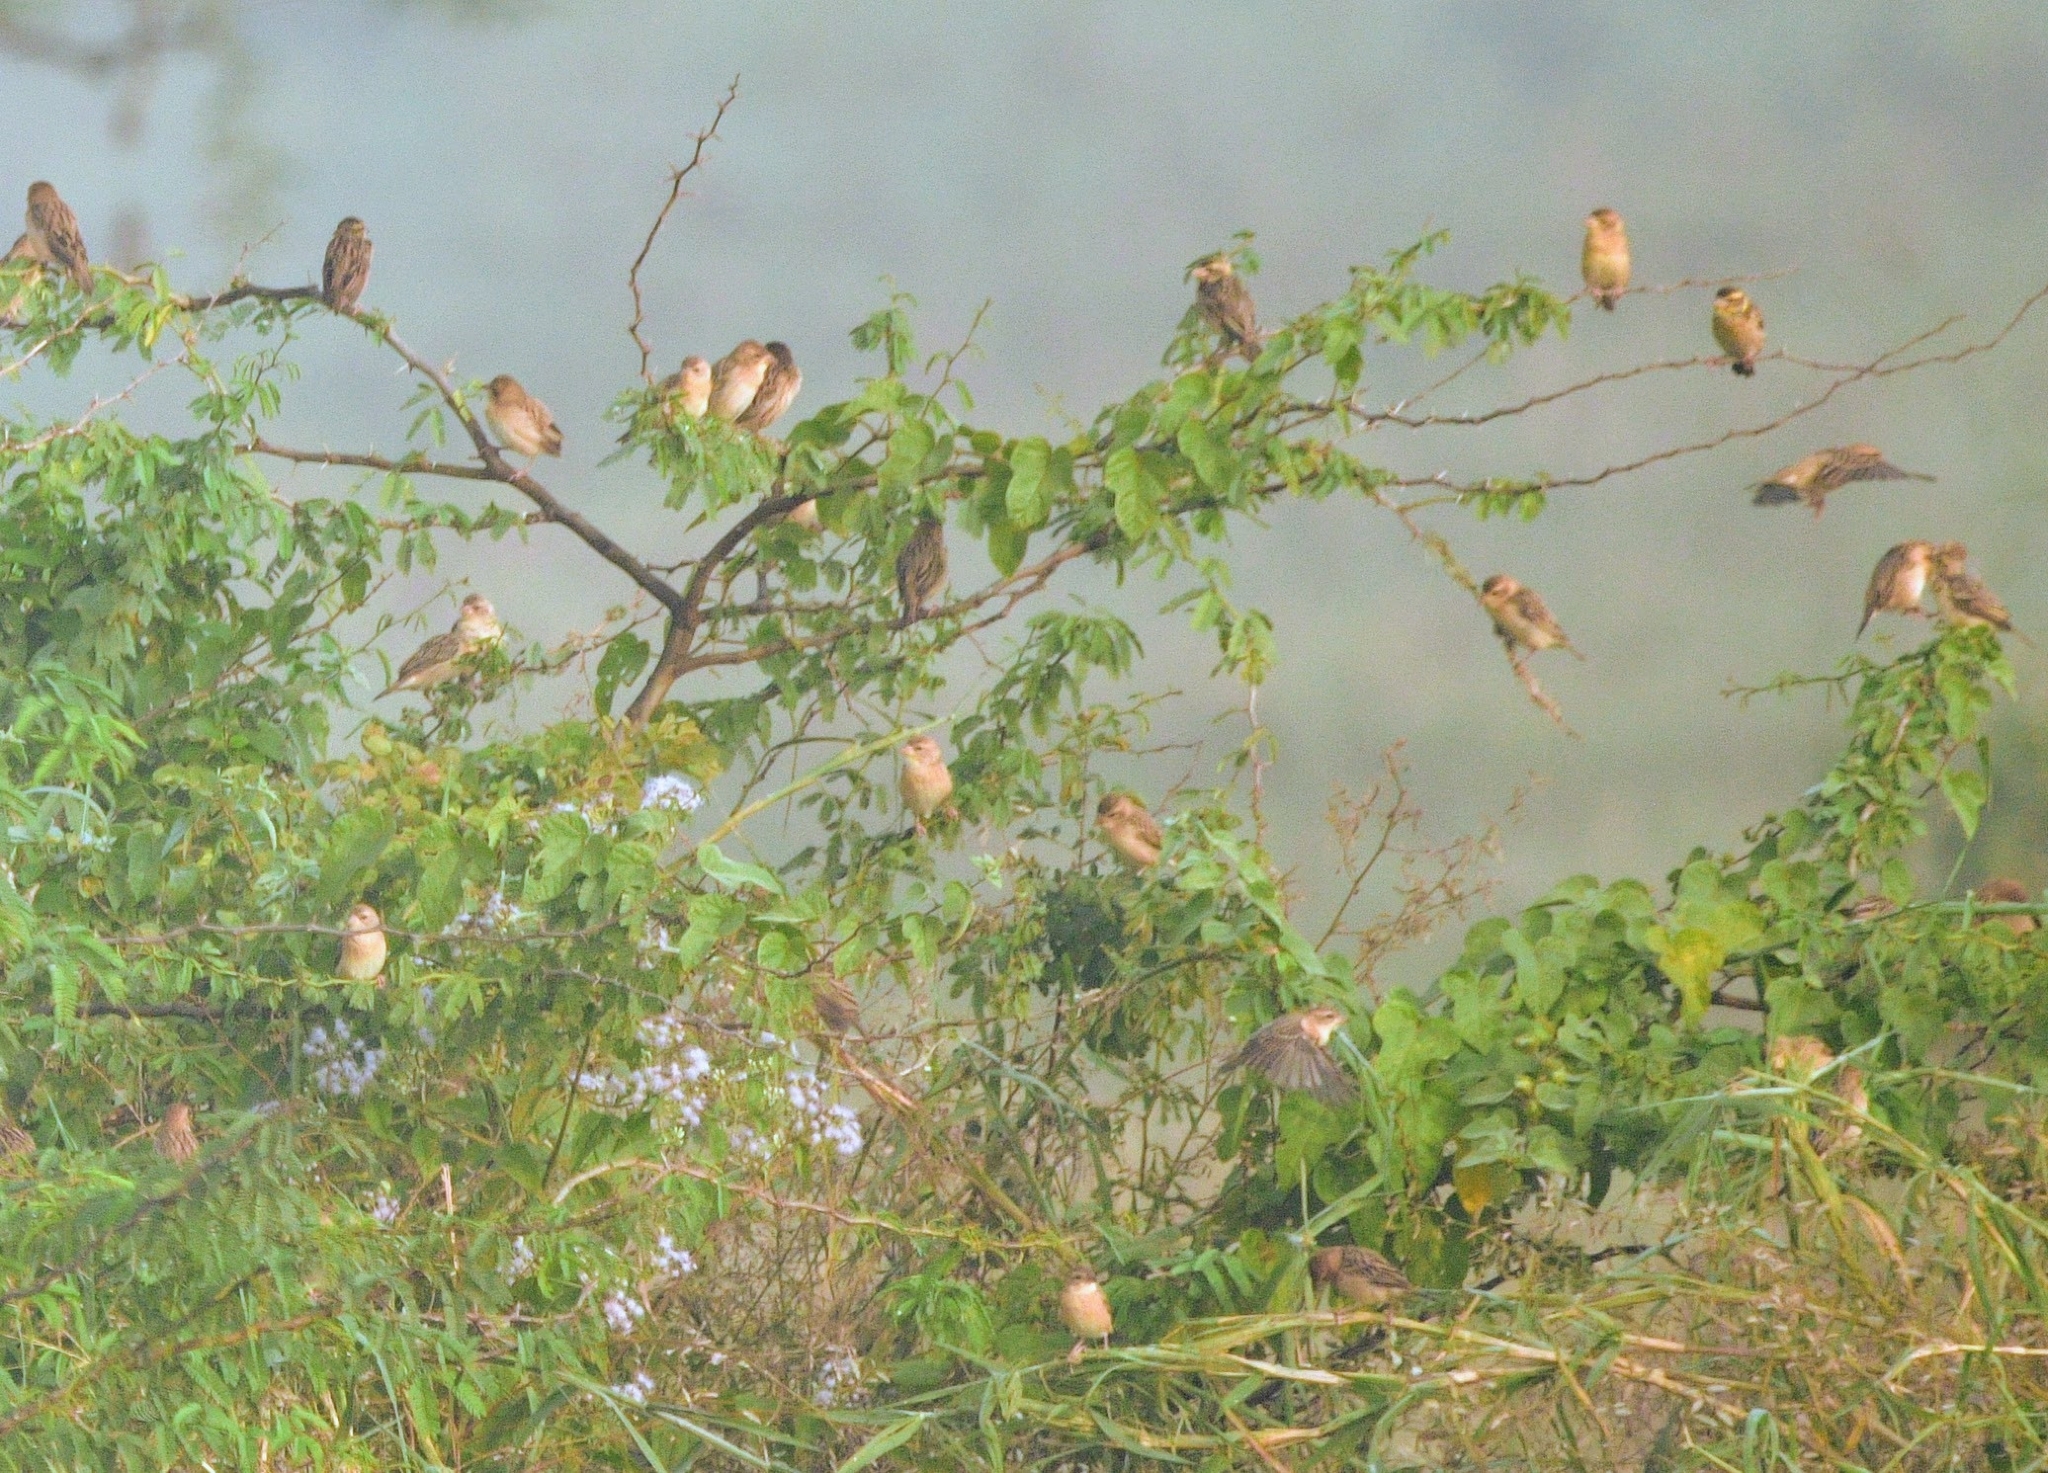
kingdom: Animalia
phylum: Chordata
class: Aves
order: Passeriformes
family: Ploceidae
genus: Ploceus
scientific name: Ploceus philippinus
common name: Baya weaver
